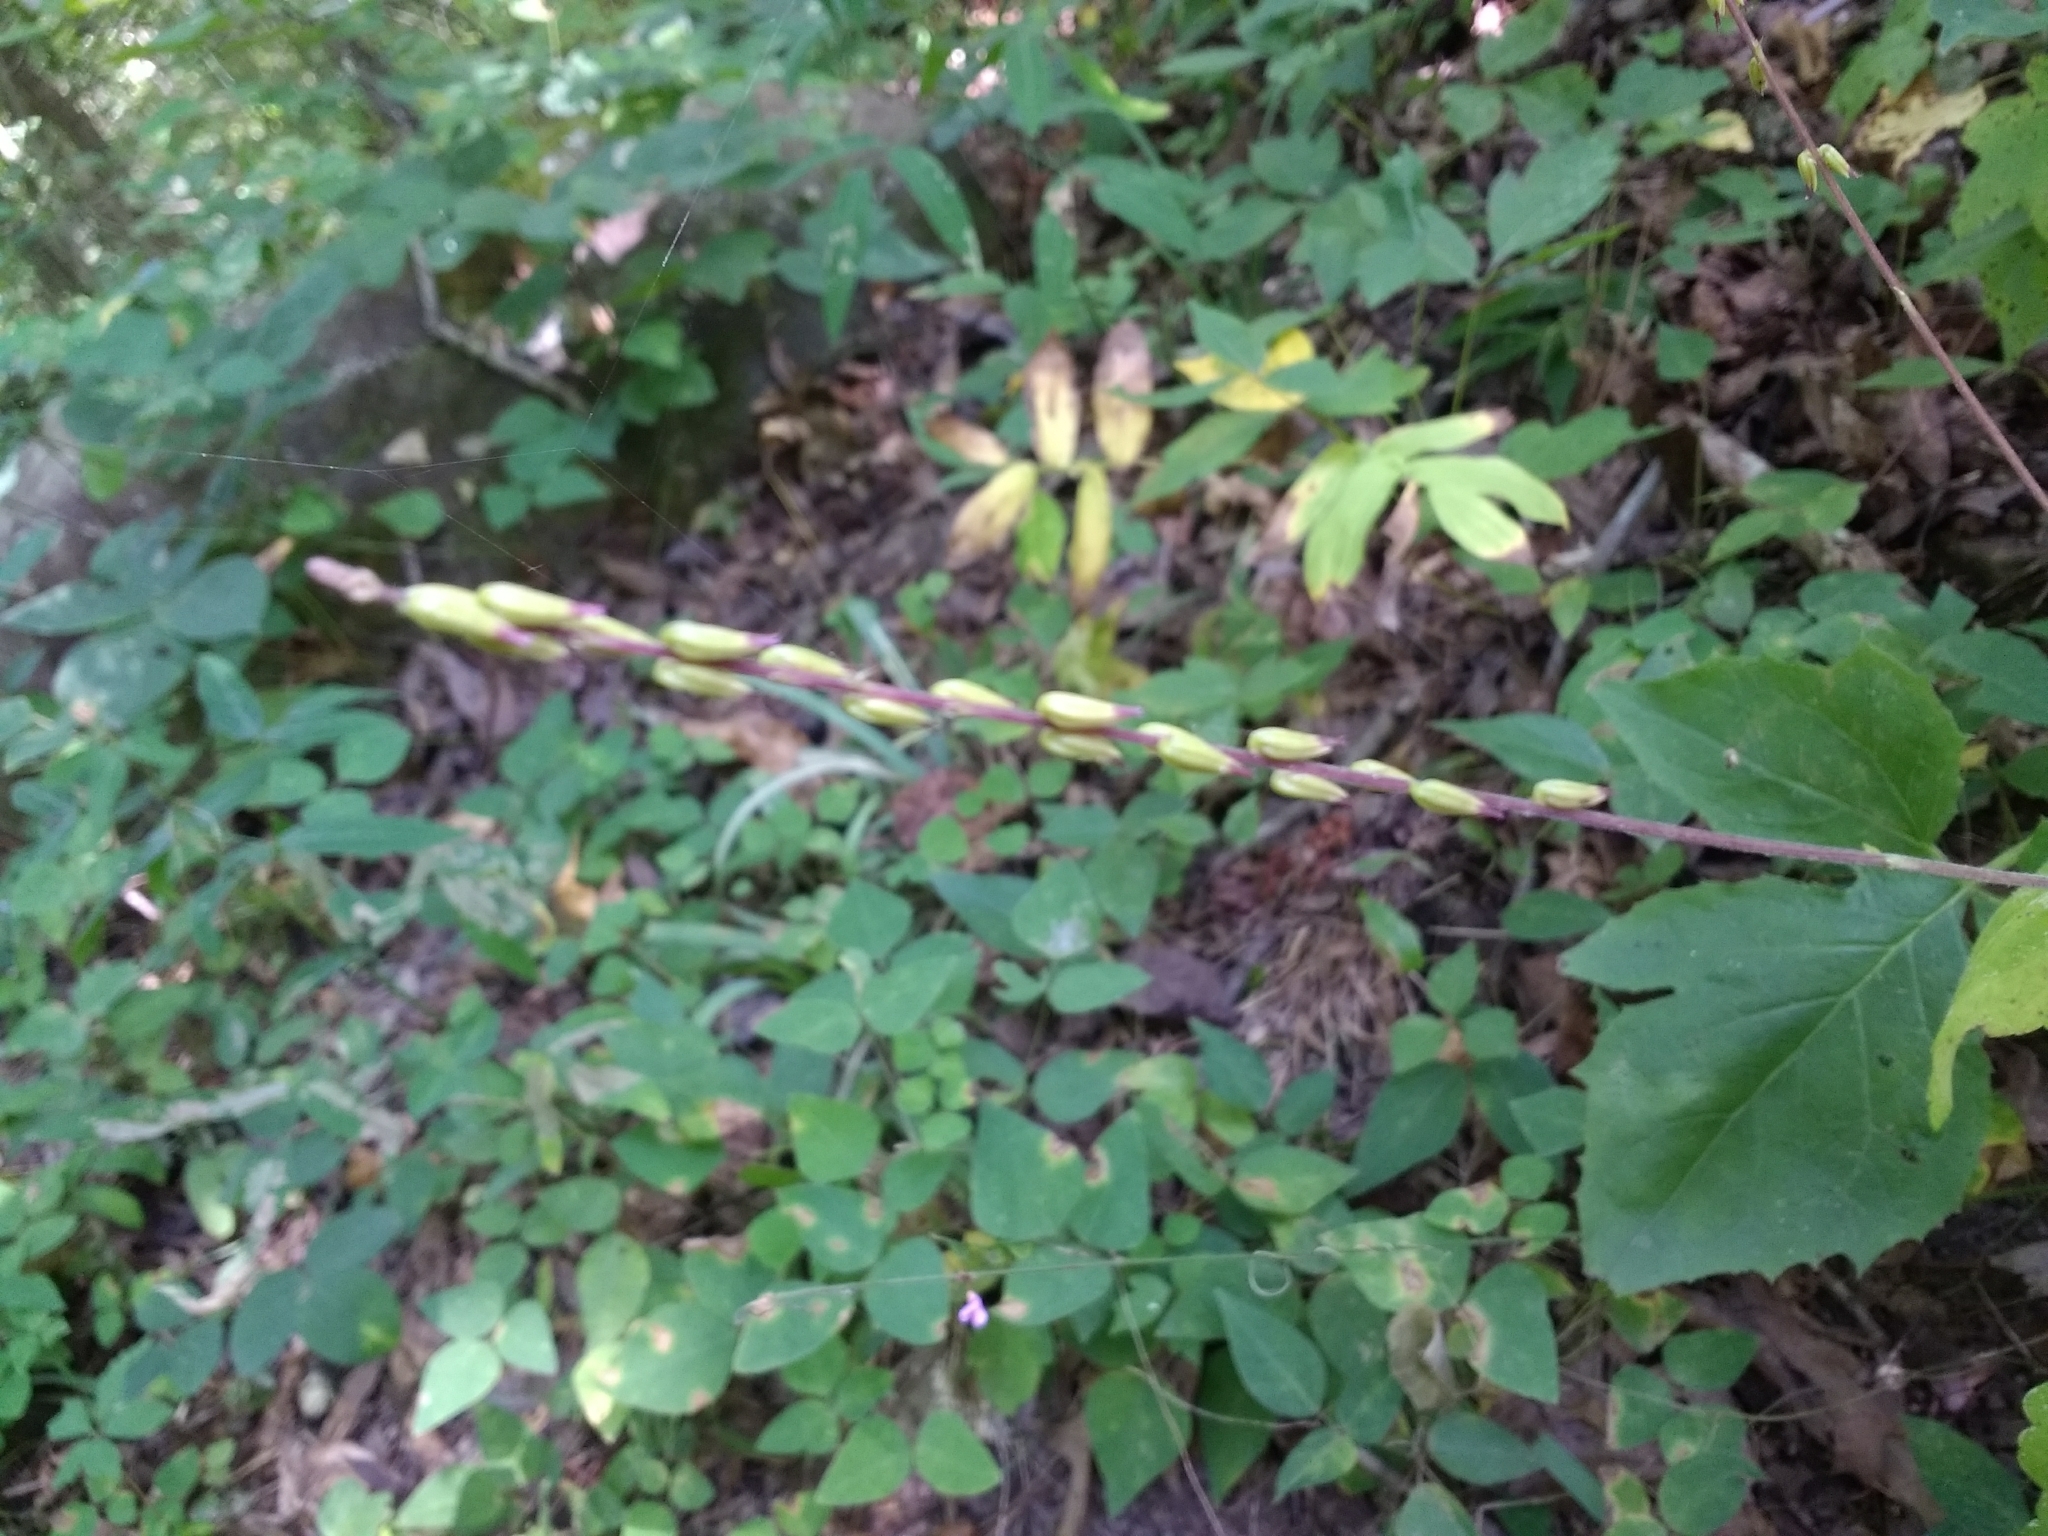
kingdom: Plantae
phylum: Tracheophyta
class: Magnoliopsida
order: Lamiales
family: Phrymaceae
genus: Phryma
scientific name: Phryma leptostachya
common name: American lopseed
